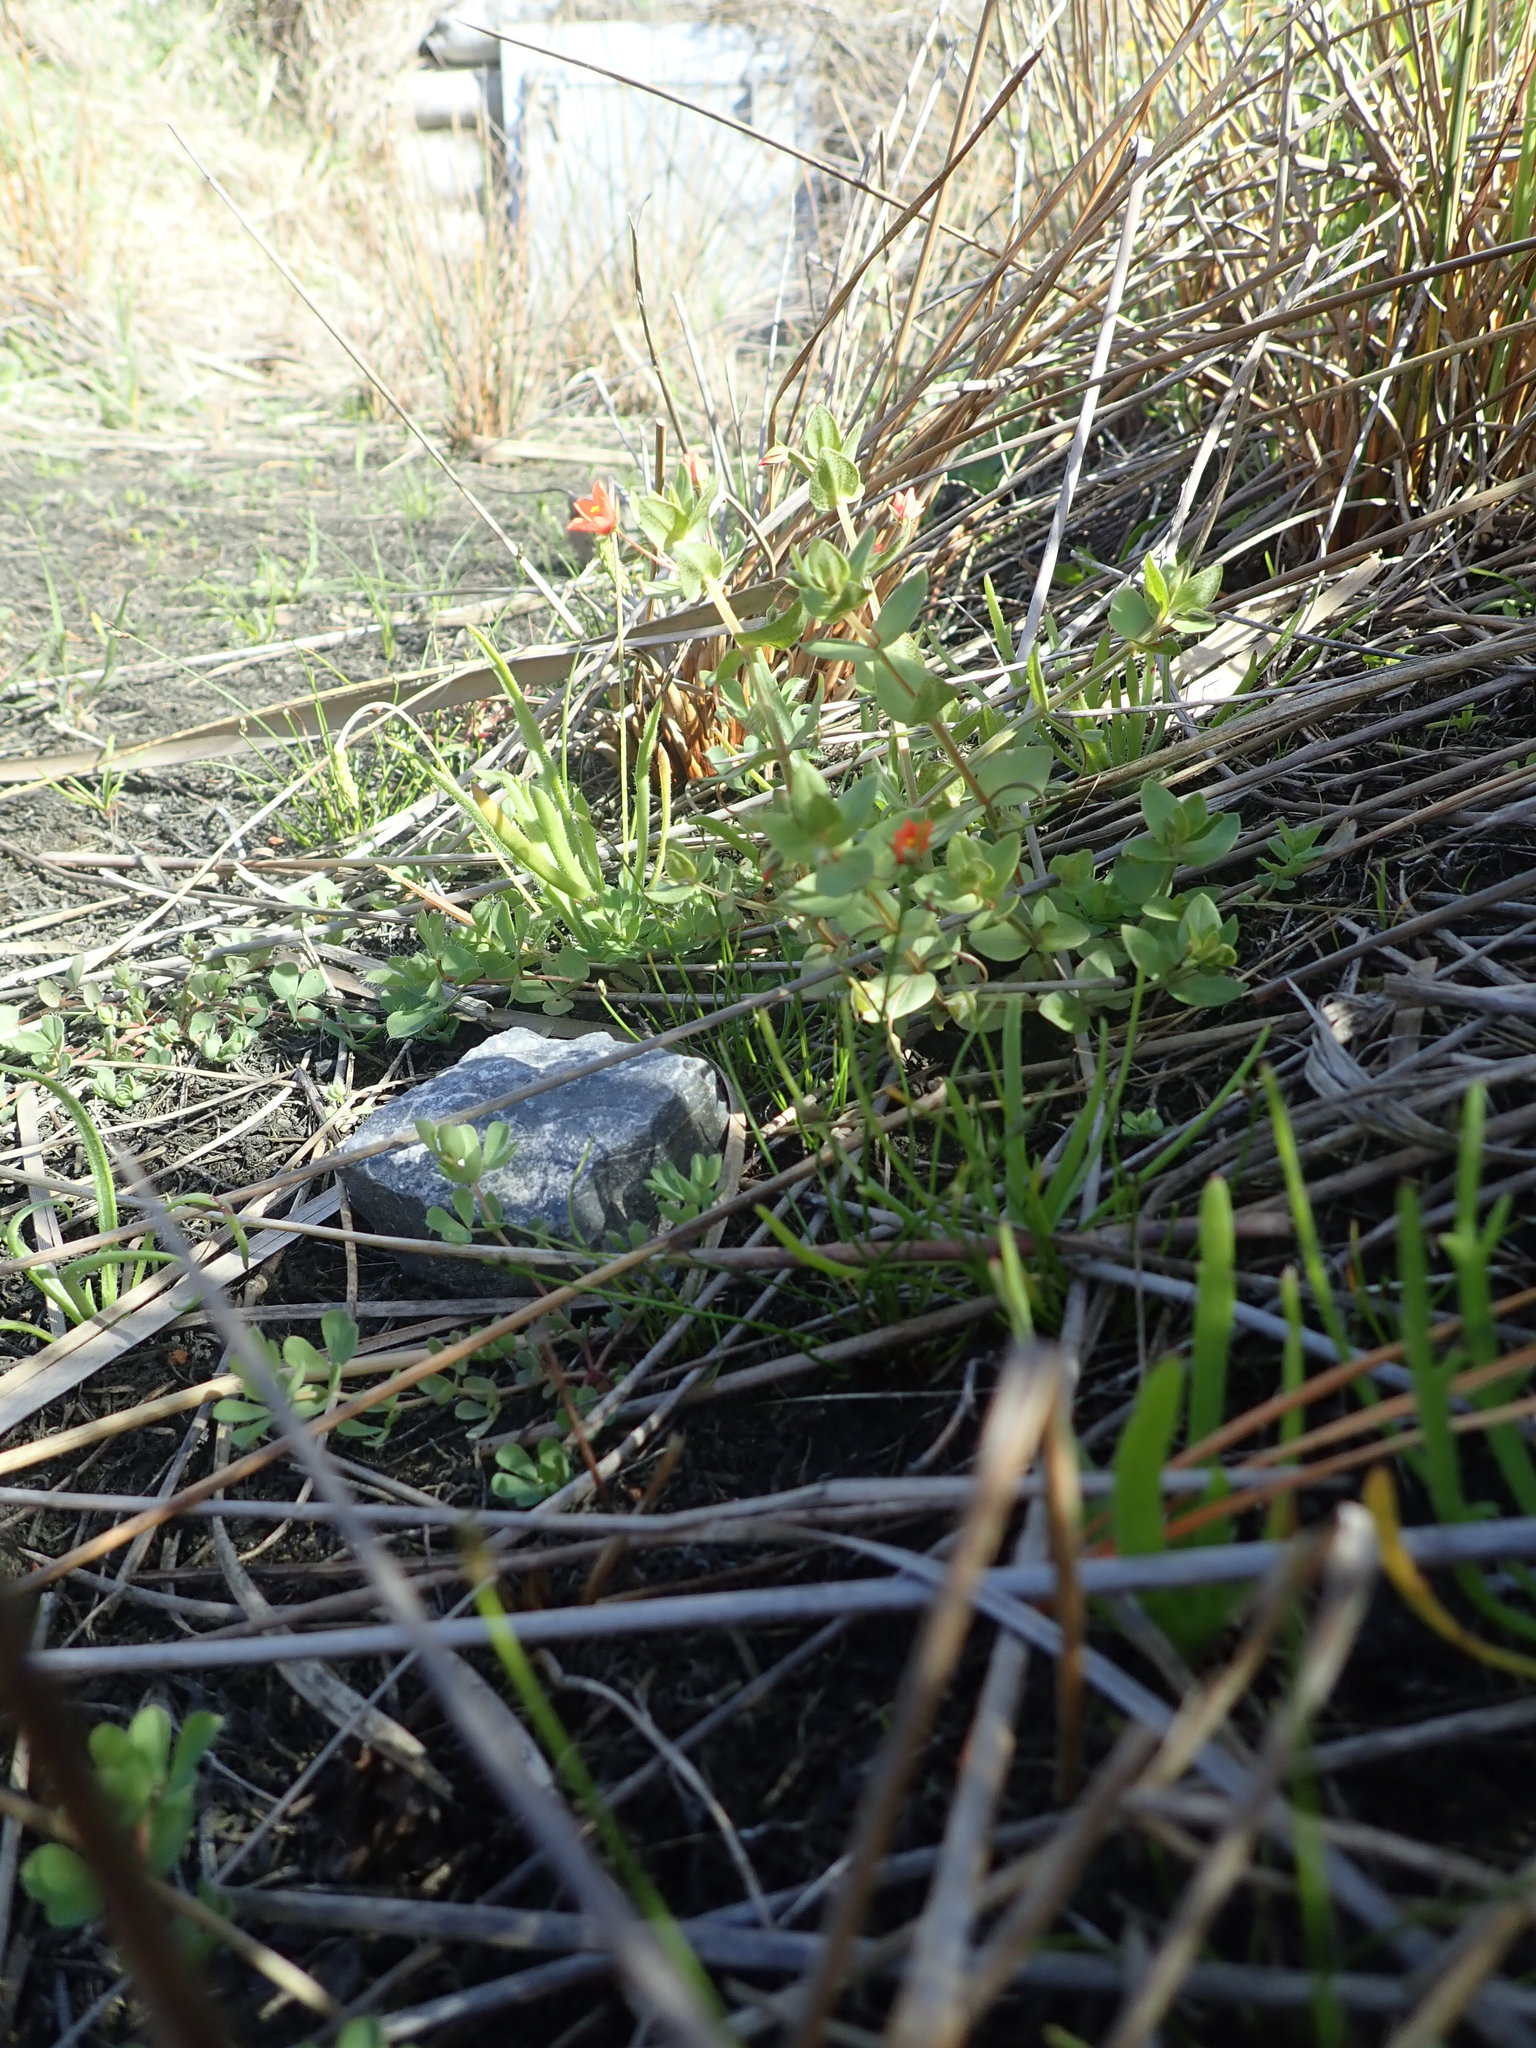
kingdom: Plantae
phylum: Tracheophyta
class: Magnoliopsida
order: Ericales
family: Primulaceae
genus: Lysimachia
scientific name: Lysimachia arvensis
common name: Scarlet pimpernel
